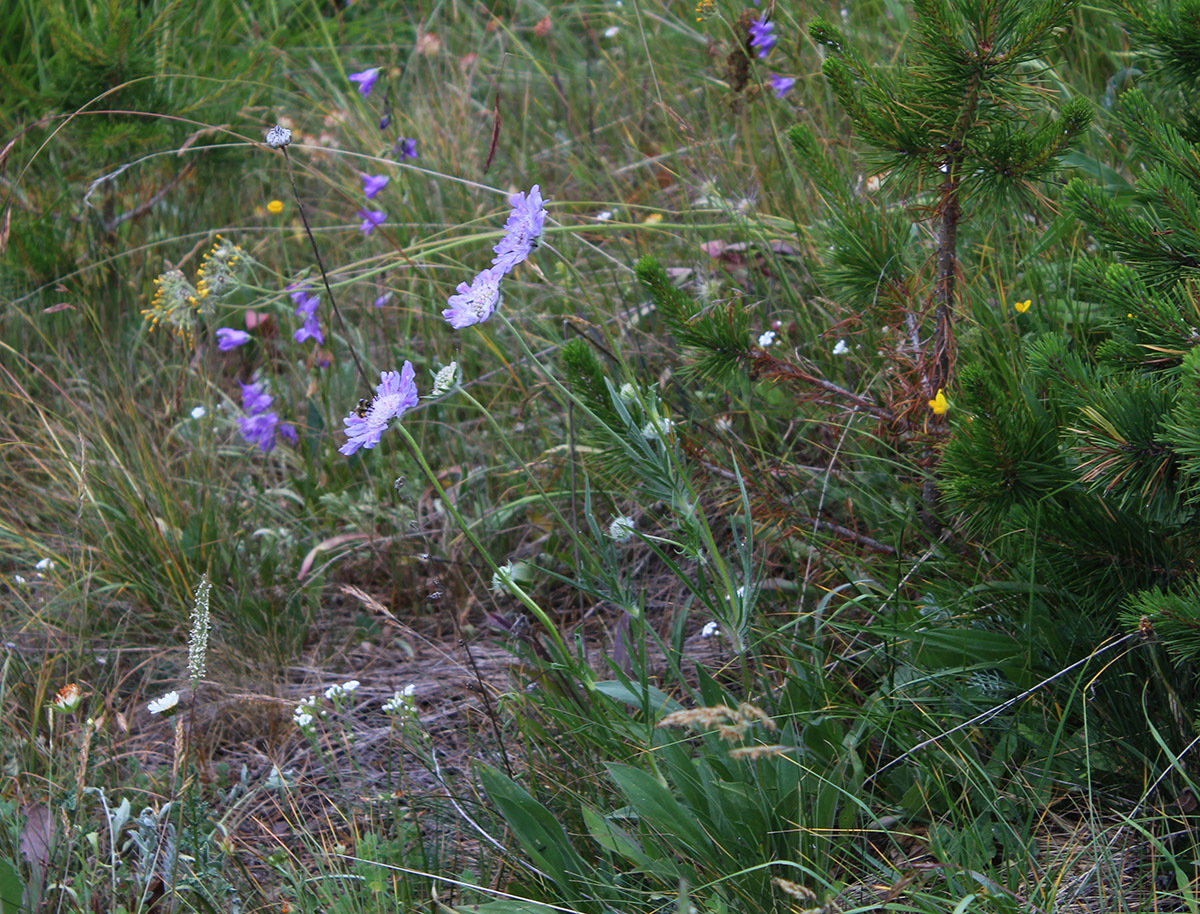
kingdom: Plantae
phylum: Tracheophyta
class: Magnoliopsida
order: Dipsacales
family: Caprifoliaceae
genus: Lomelosia
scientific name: Lomelosia caucasica
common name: Pincushion-flower
